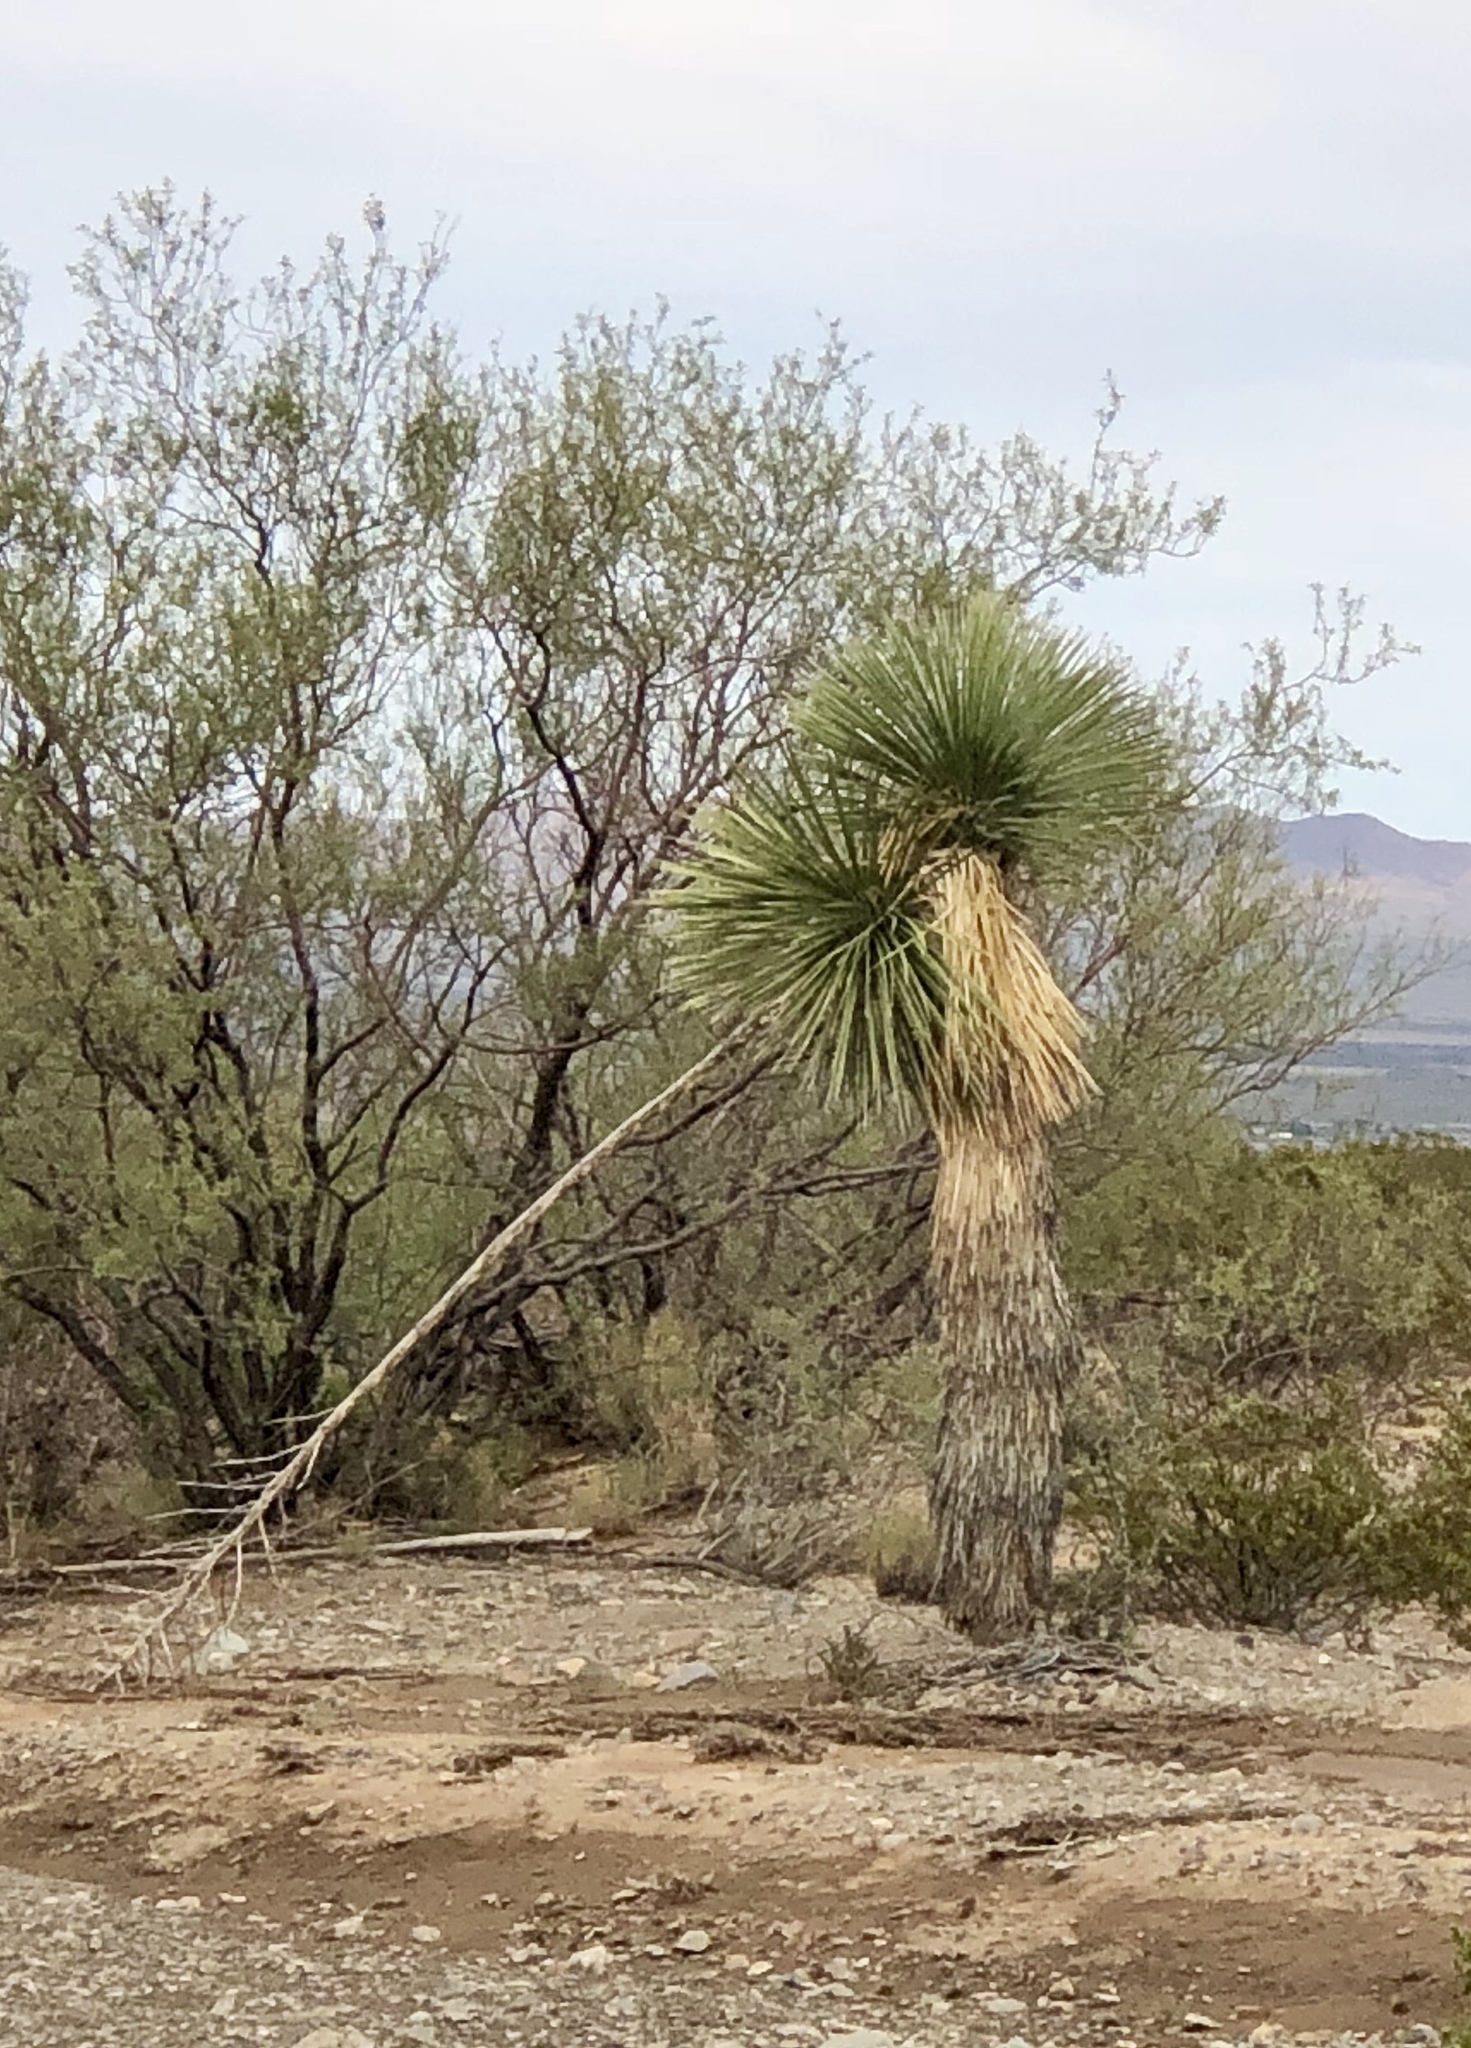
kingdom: Plantae
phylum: Tracheophyta
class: Liliopsida
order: Asparagales
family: Asparagaceae
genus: Yucca
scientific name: Yucca elata
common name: Palmella
